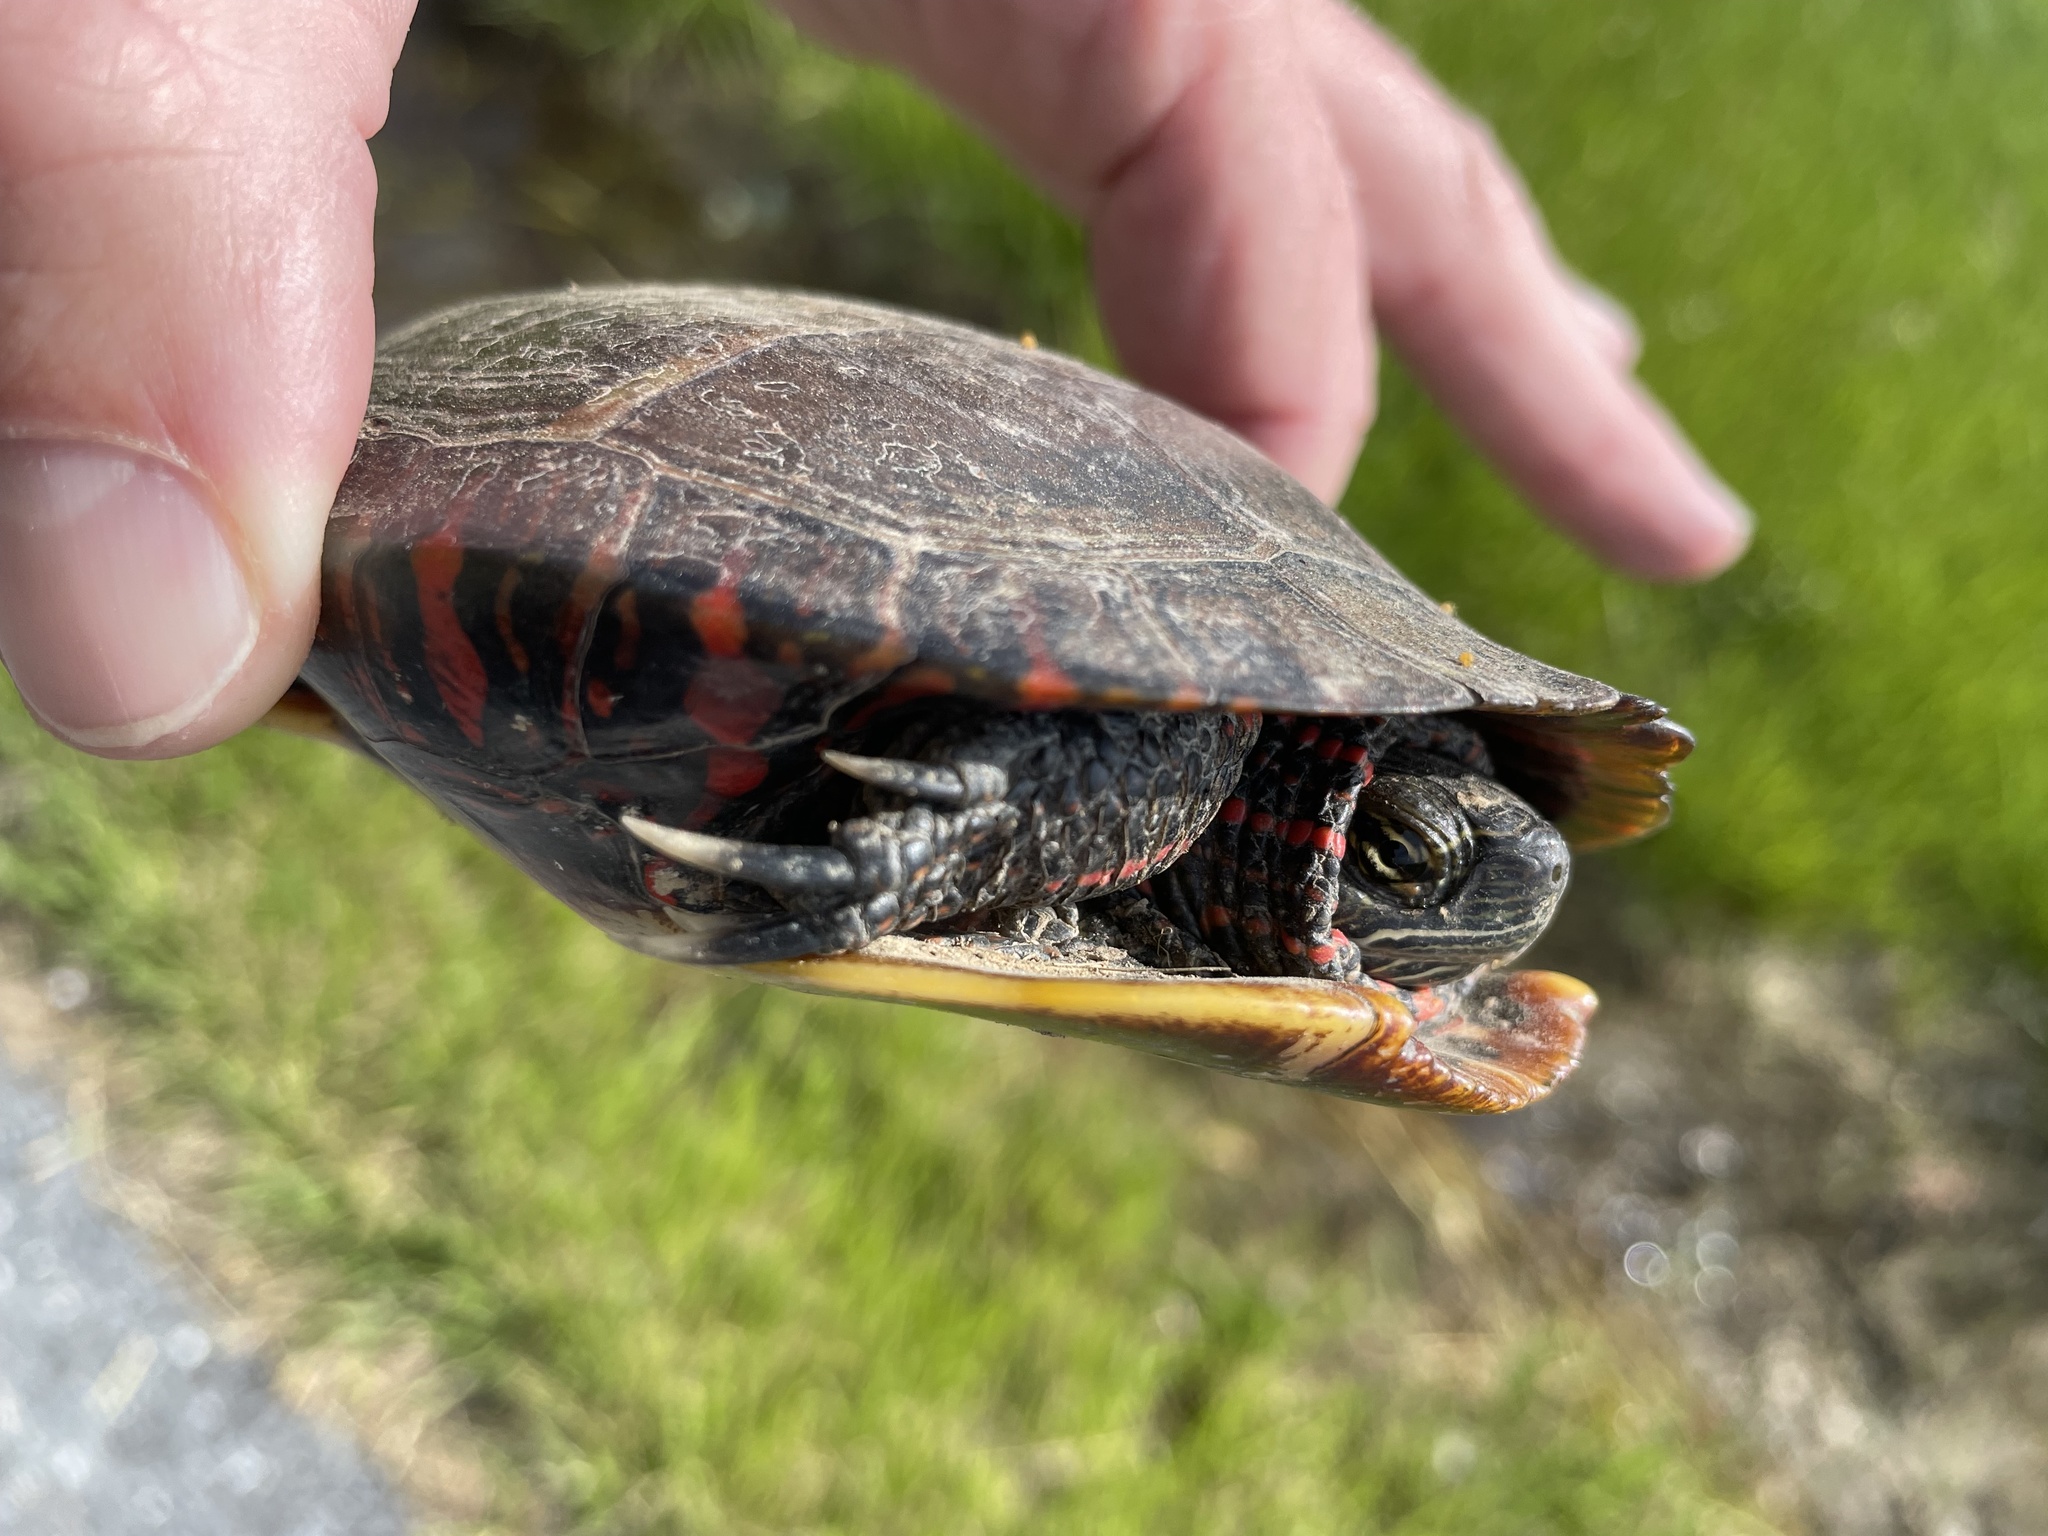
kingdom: Animalia
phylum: Chordata
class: Testudines
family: Emydidae
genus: Chrysemys
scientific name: Chrysemys picta
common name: Painted turtle
